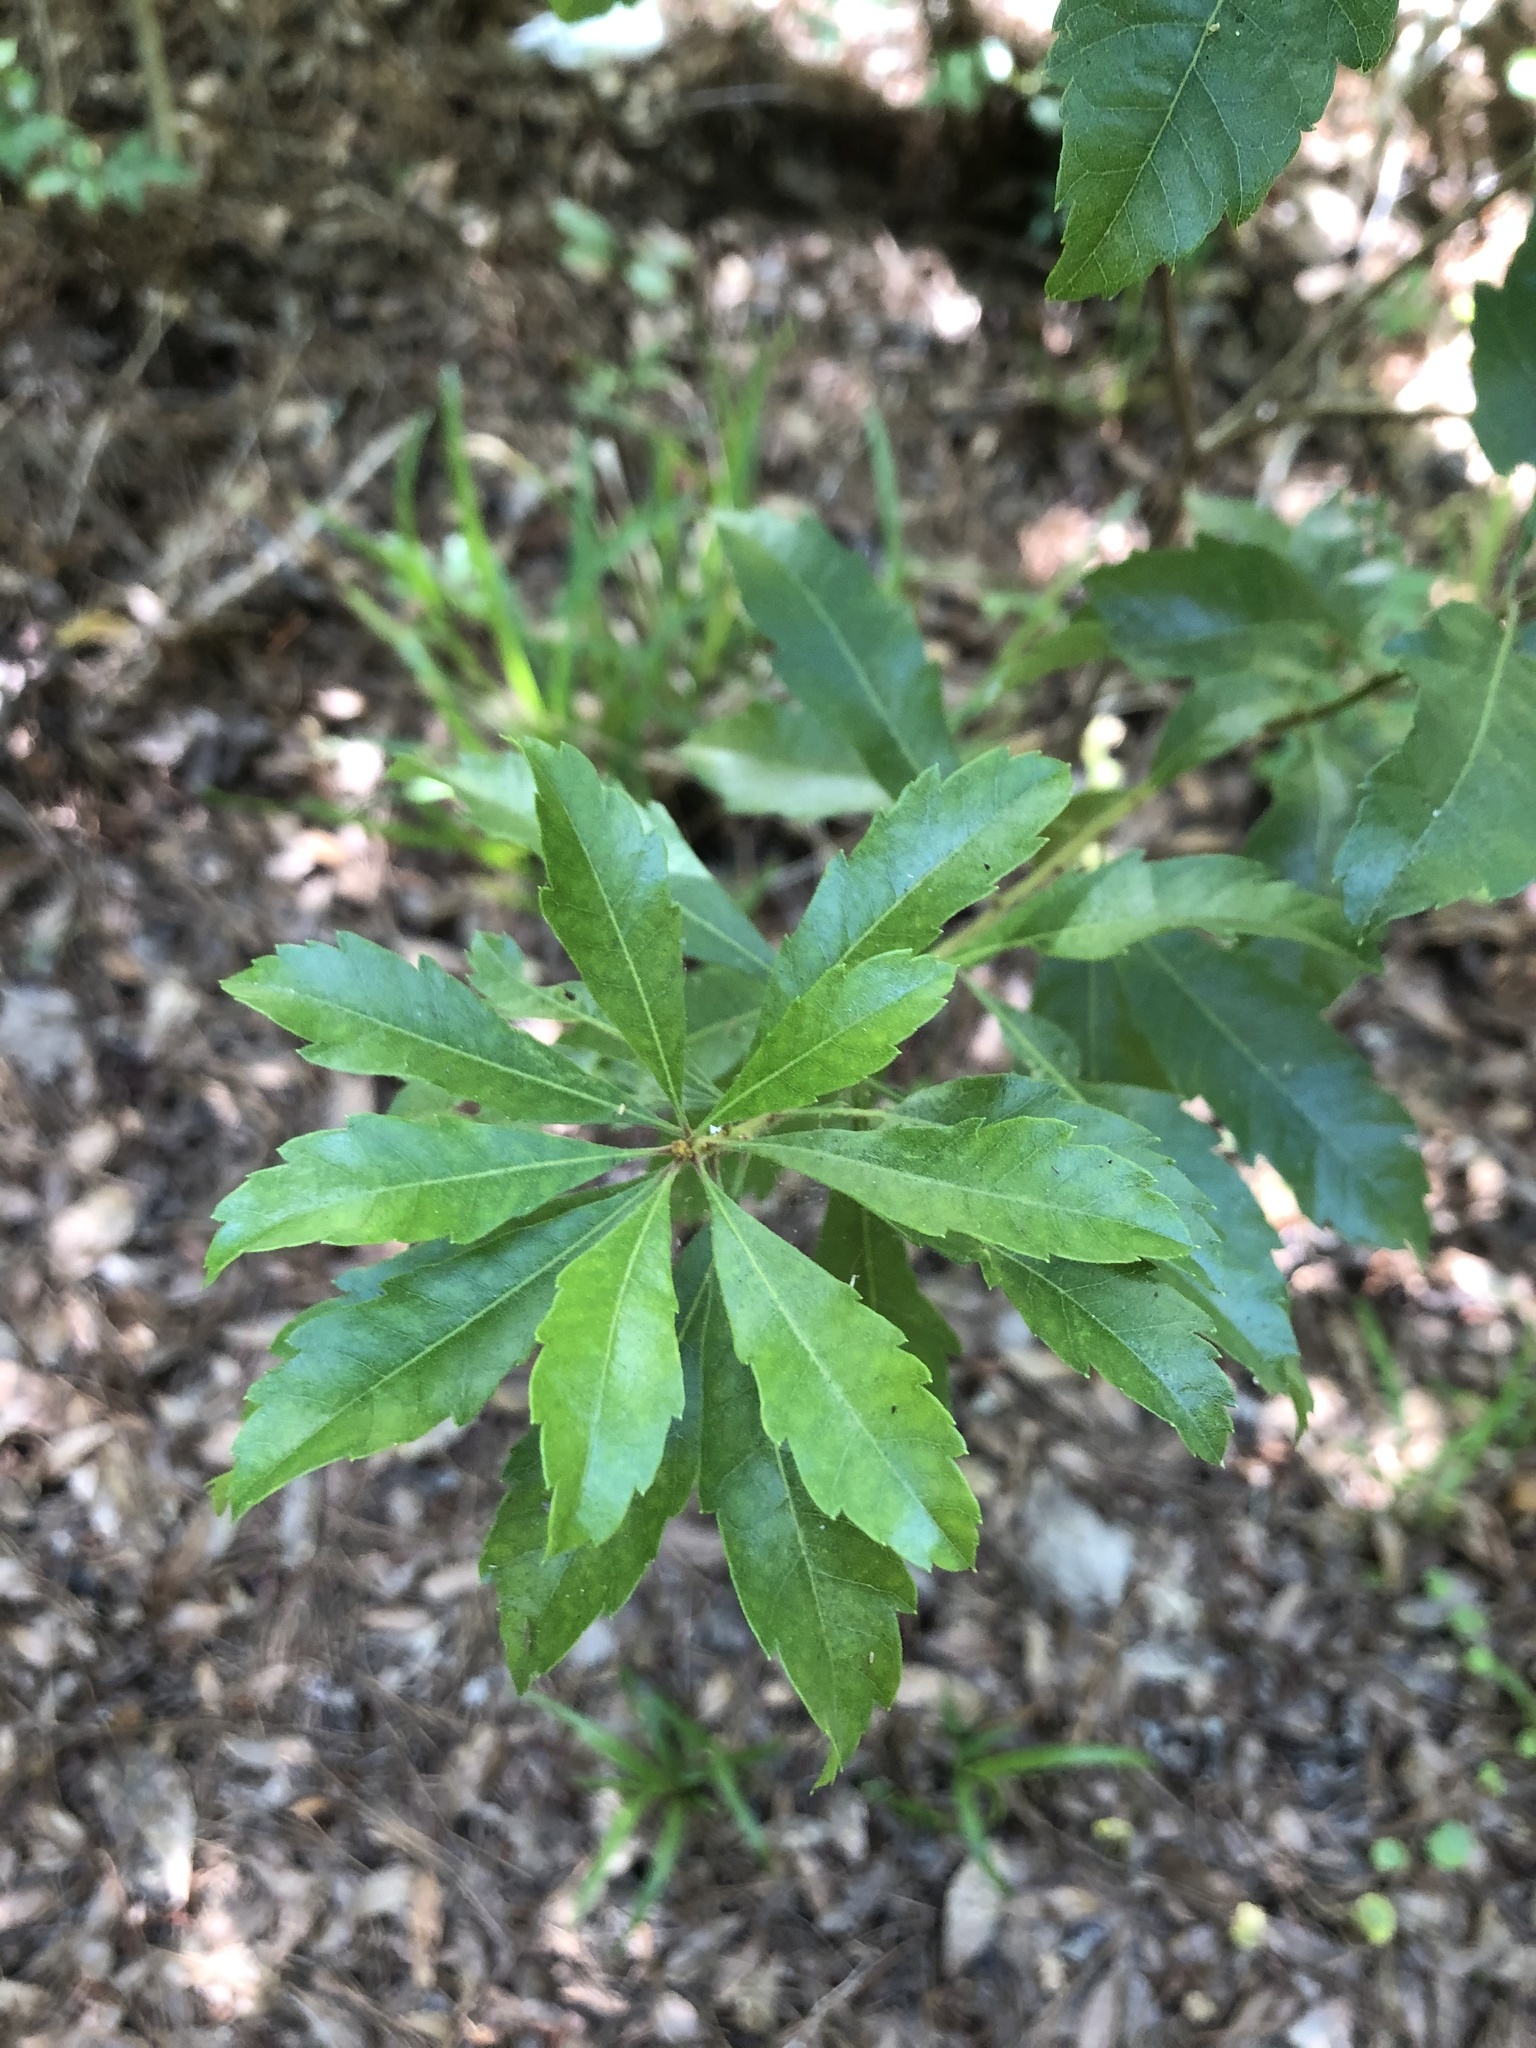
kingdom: Plantae
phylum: Tracheophyta
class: Magnoliopsida
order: Fagales
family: Myricaceae
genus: Morella
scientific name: Morella cerifera
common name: Wax myrtle
